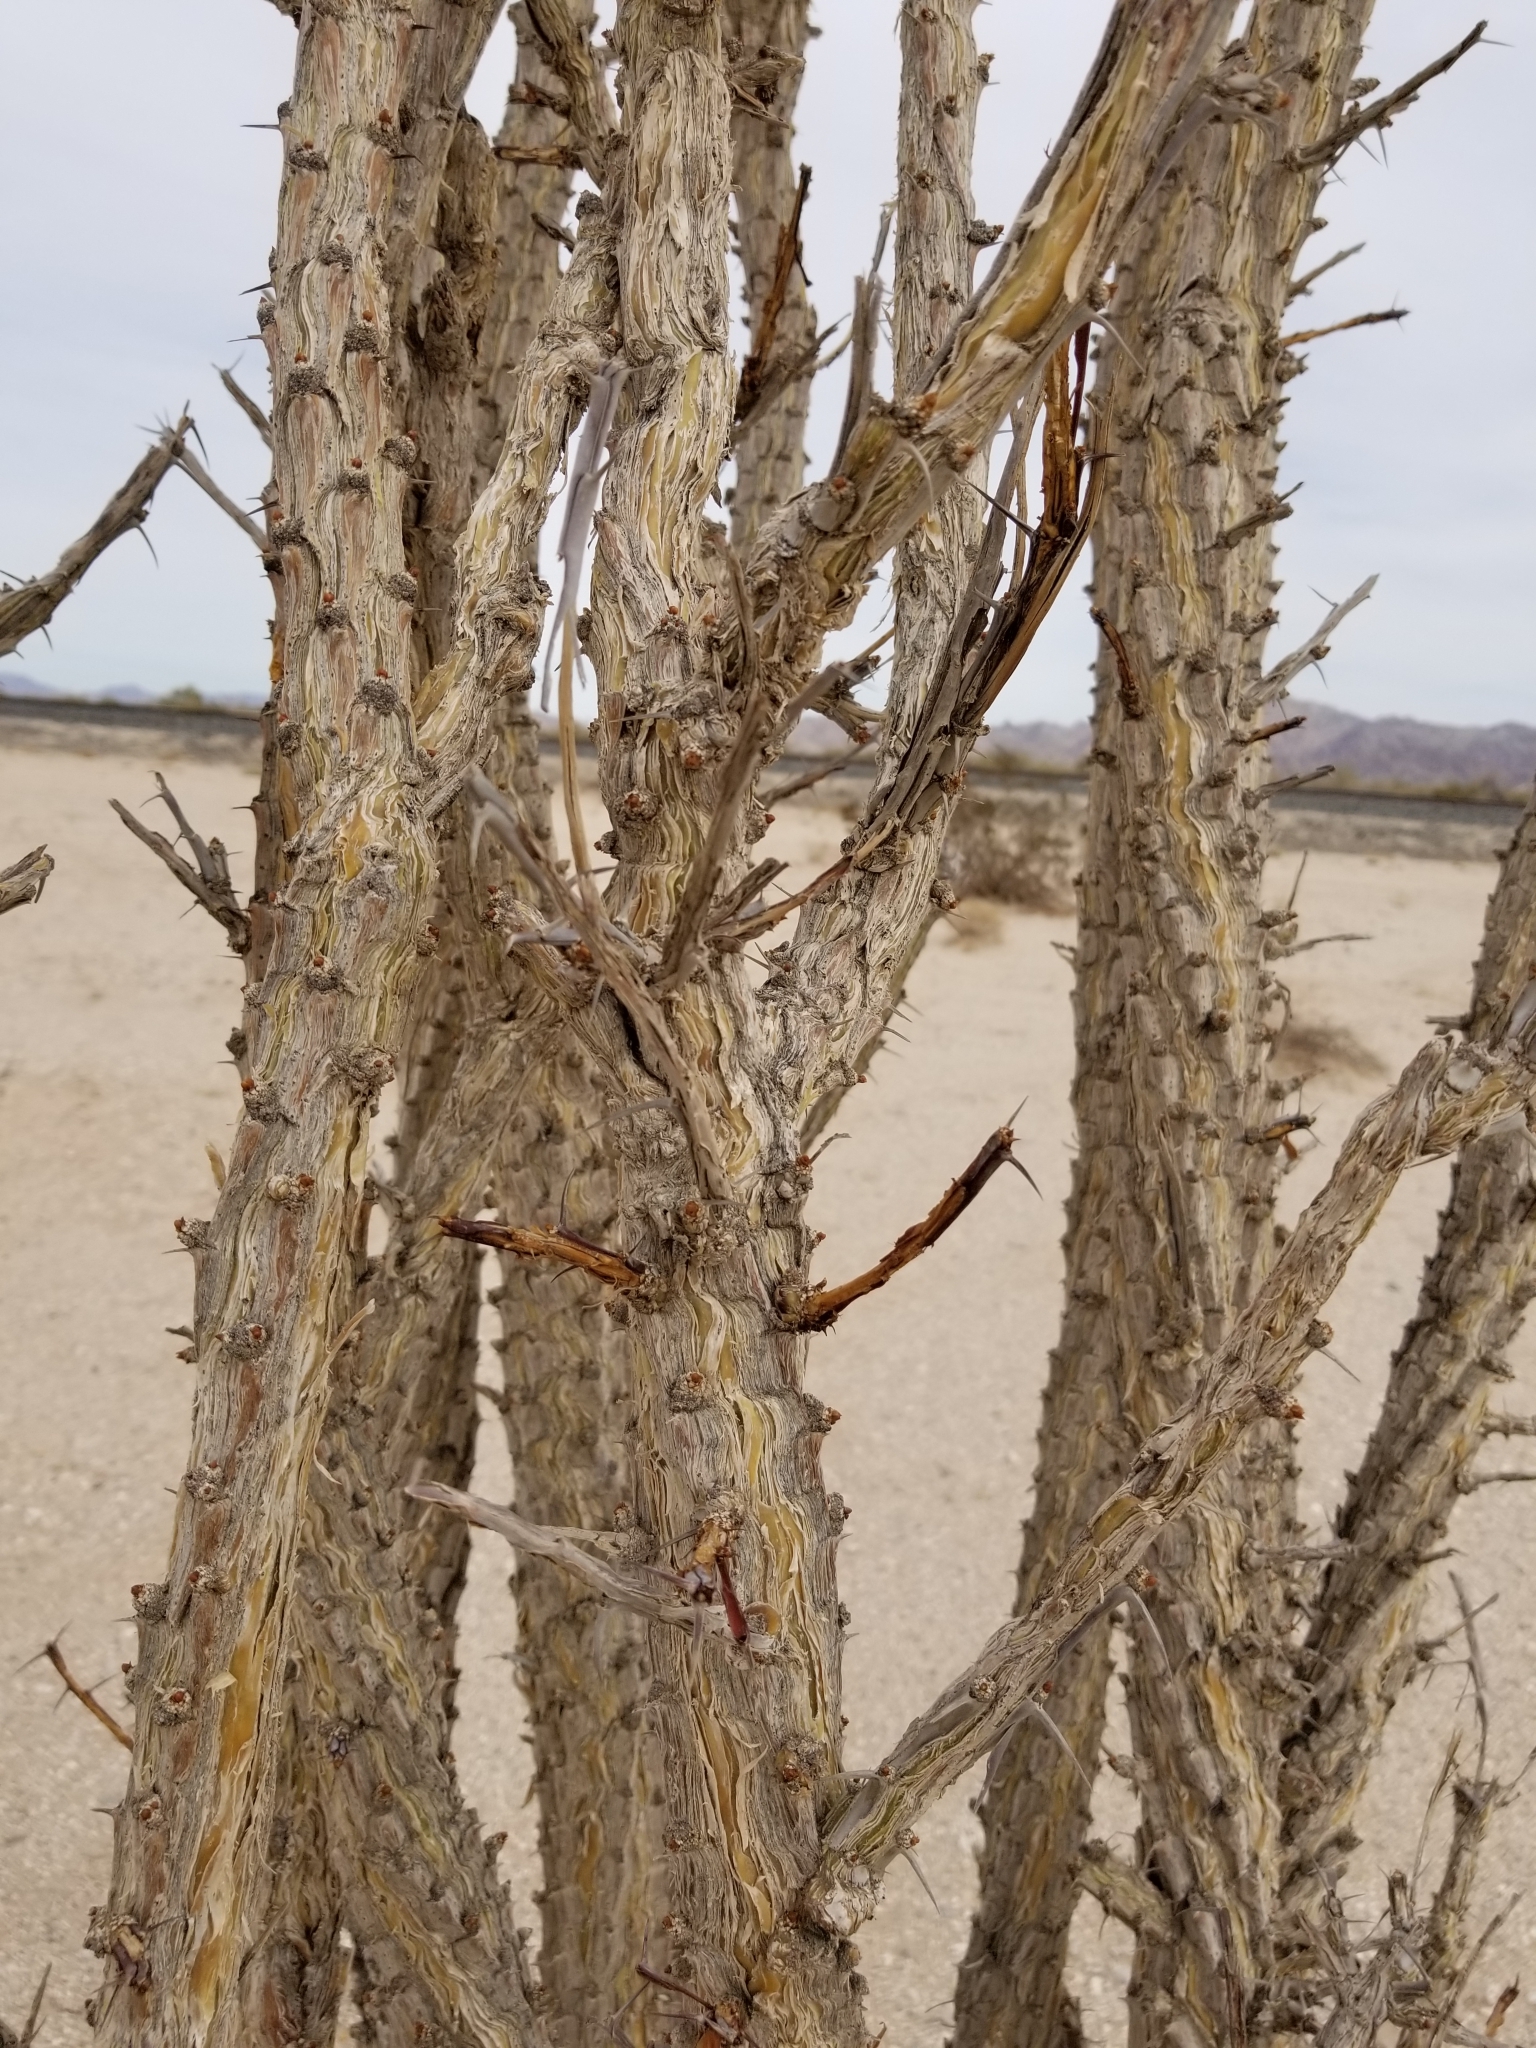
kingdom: Plantae
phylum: Tracheophyta
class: Magnoliopsida
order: Ericales
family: Fouquieriaceae
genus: Fouquieria
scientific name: Fouquieria splendens
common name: Vine-cactus
